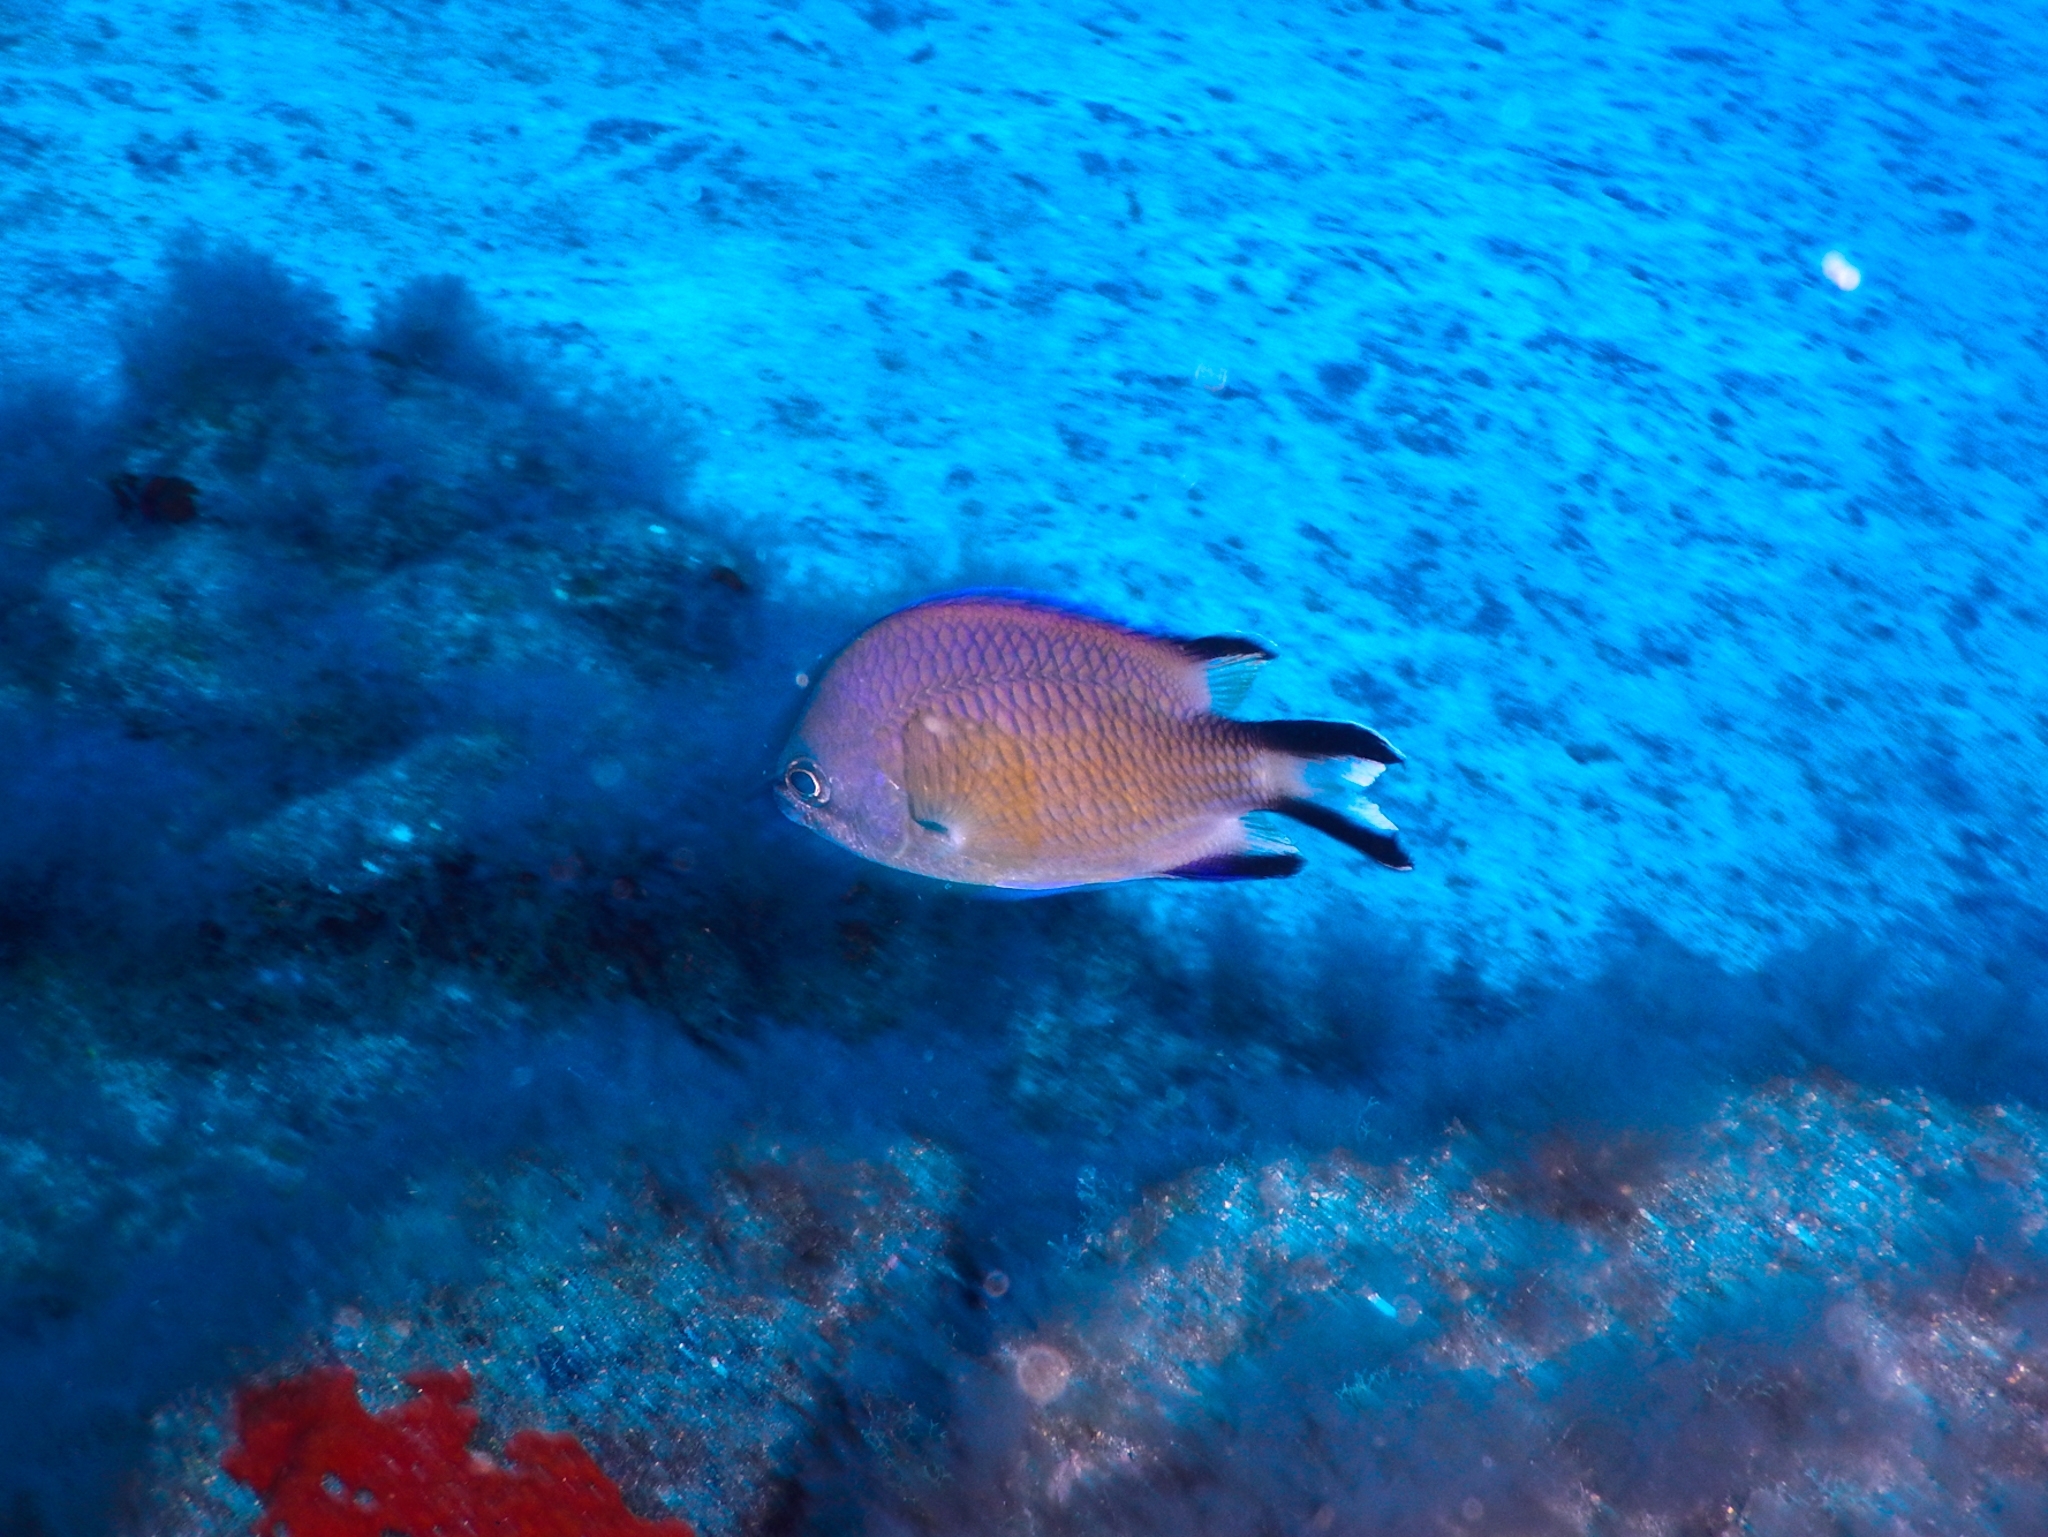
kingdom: Animalia
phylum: Chordata
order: Perciformes
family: Pomacentridae
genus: Chromis
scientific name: Chromis limbata
